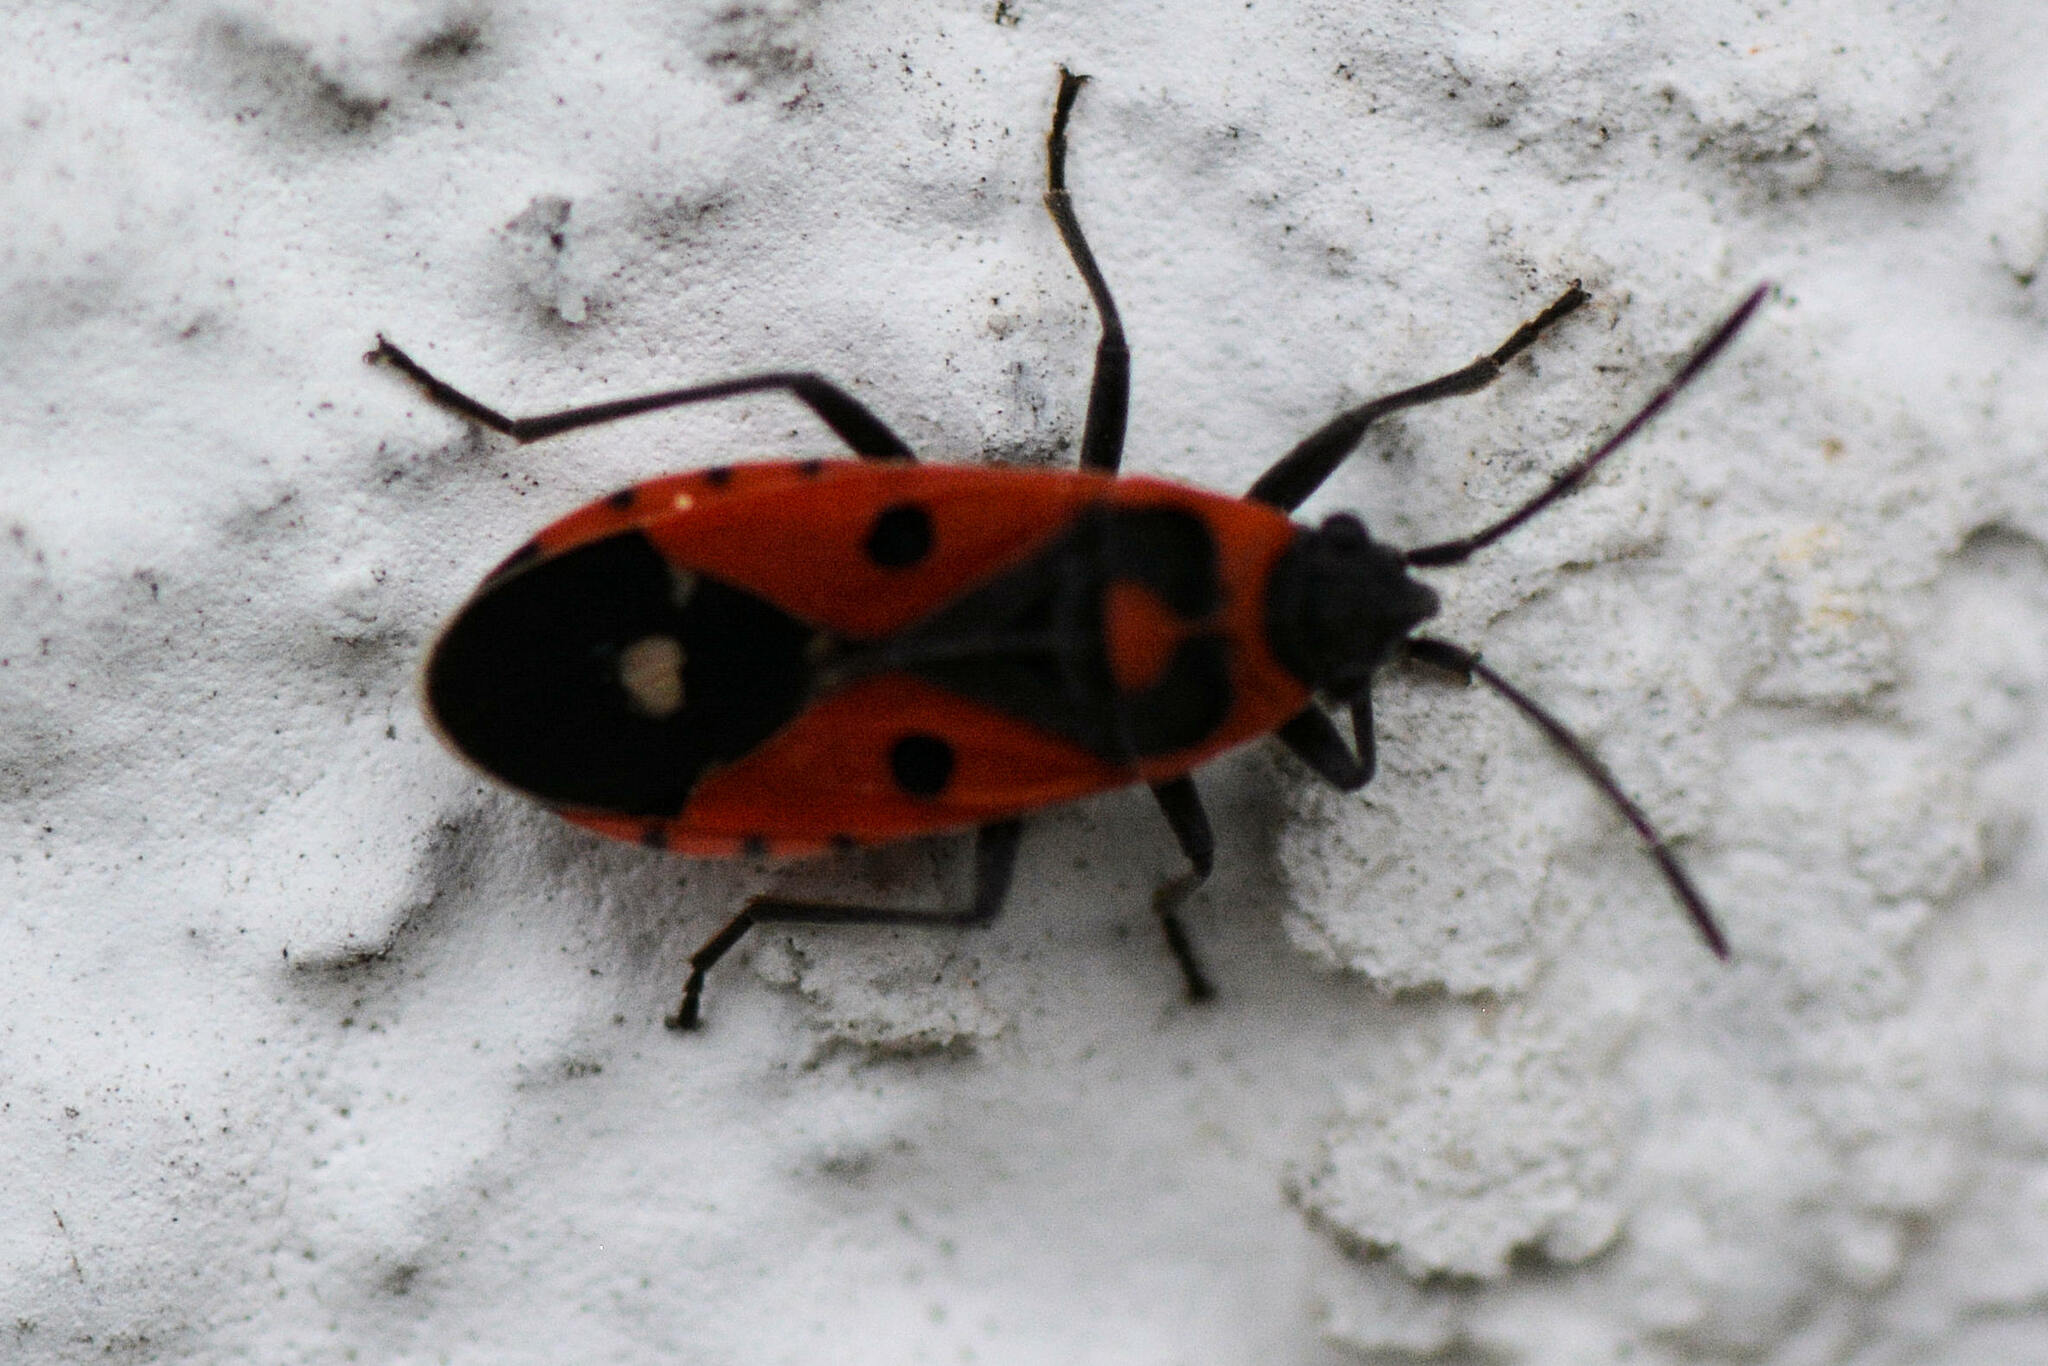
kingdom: Animalia
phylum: Arthropoda
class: Insecta
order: Hemiptera
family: Lygaeidae
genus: Melanocoryphus
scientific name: Melanocoryphus albomaculatus
